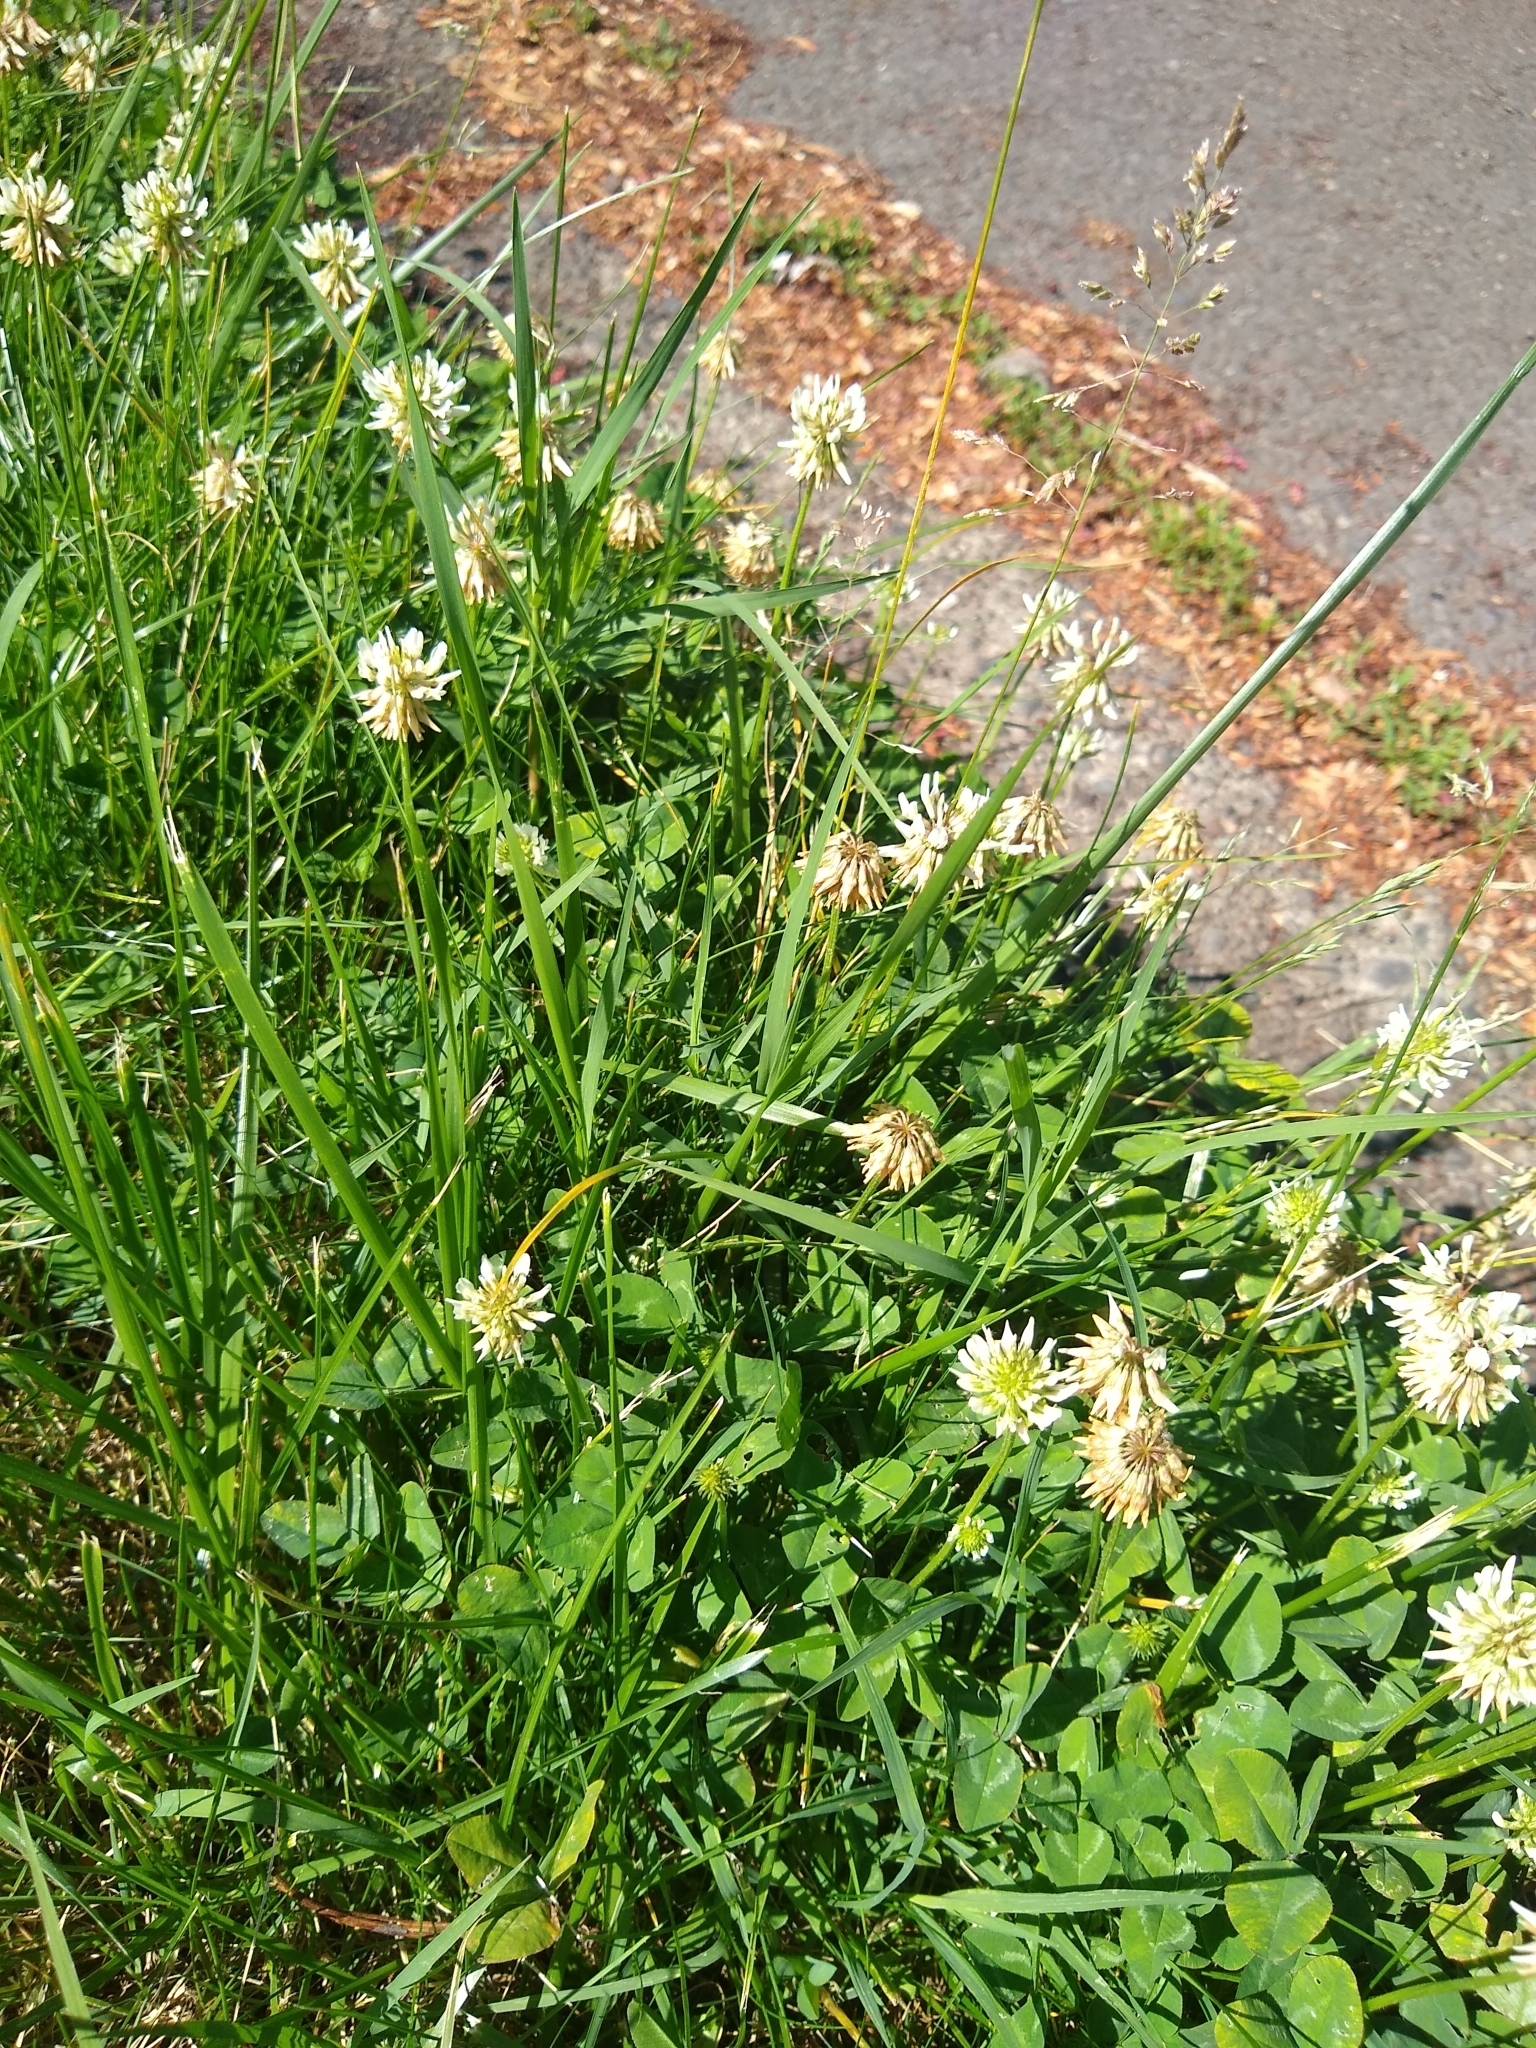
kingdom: Plantae
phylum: Tracheophyta
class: Magnoliopsida
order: Fabales
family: Fabaceae
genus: Trifolium
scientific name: Trifolium repens
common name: White clover
